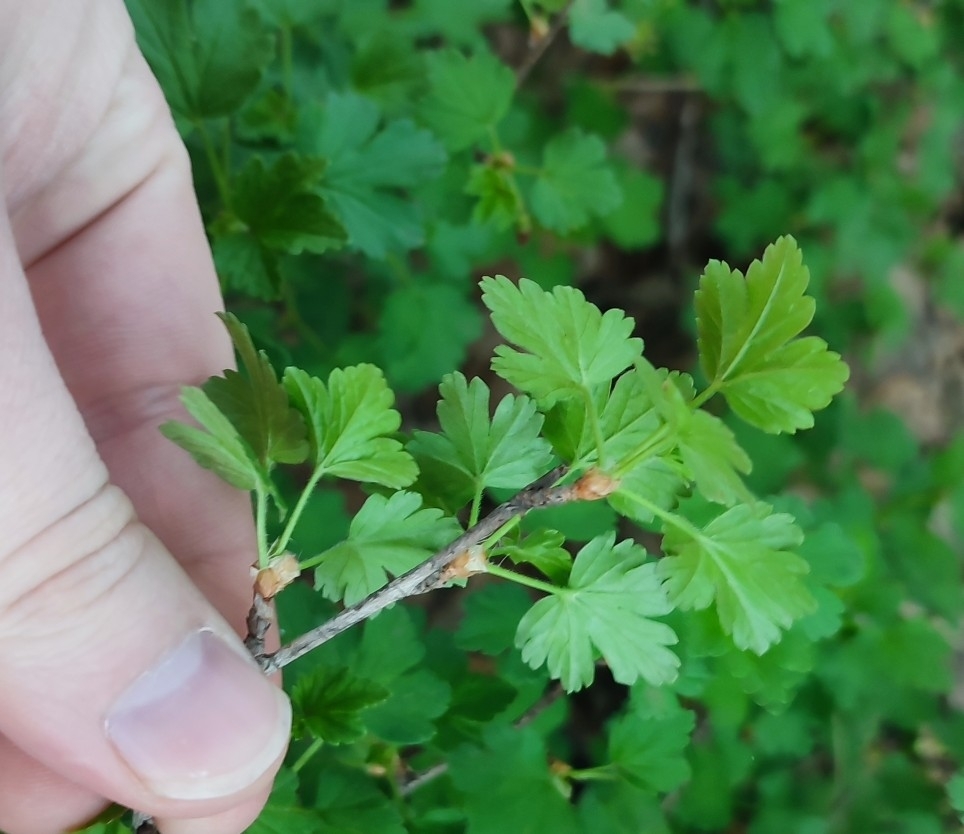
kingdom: Plantae
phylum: Tracheophyta
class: Magnoliopsida
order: Saxifragales
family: Grossulariaceae
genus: Ribes
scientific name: Ribes uva-crispa
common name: Gooseberry
